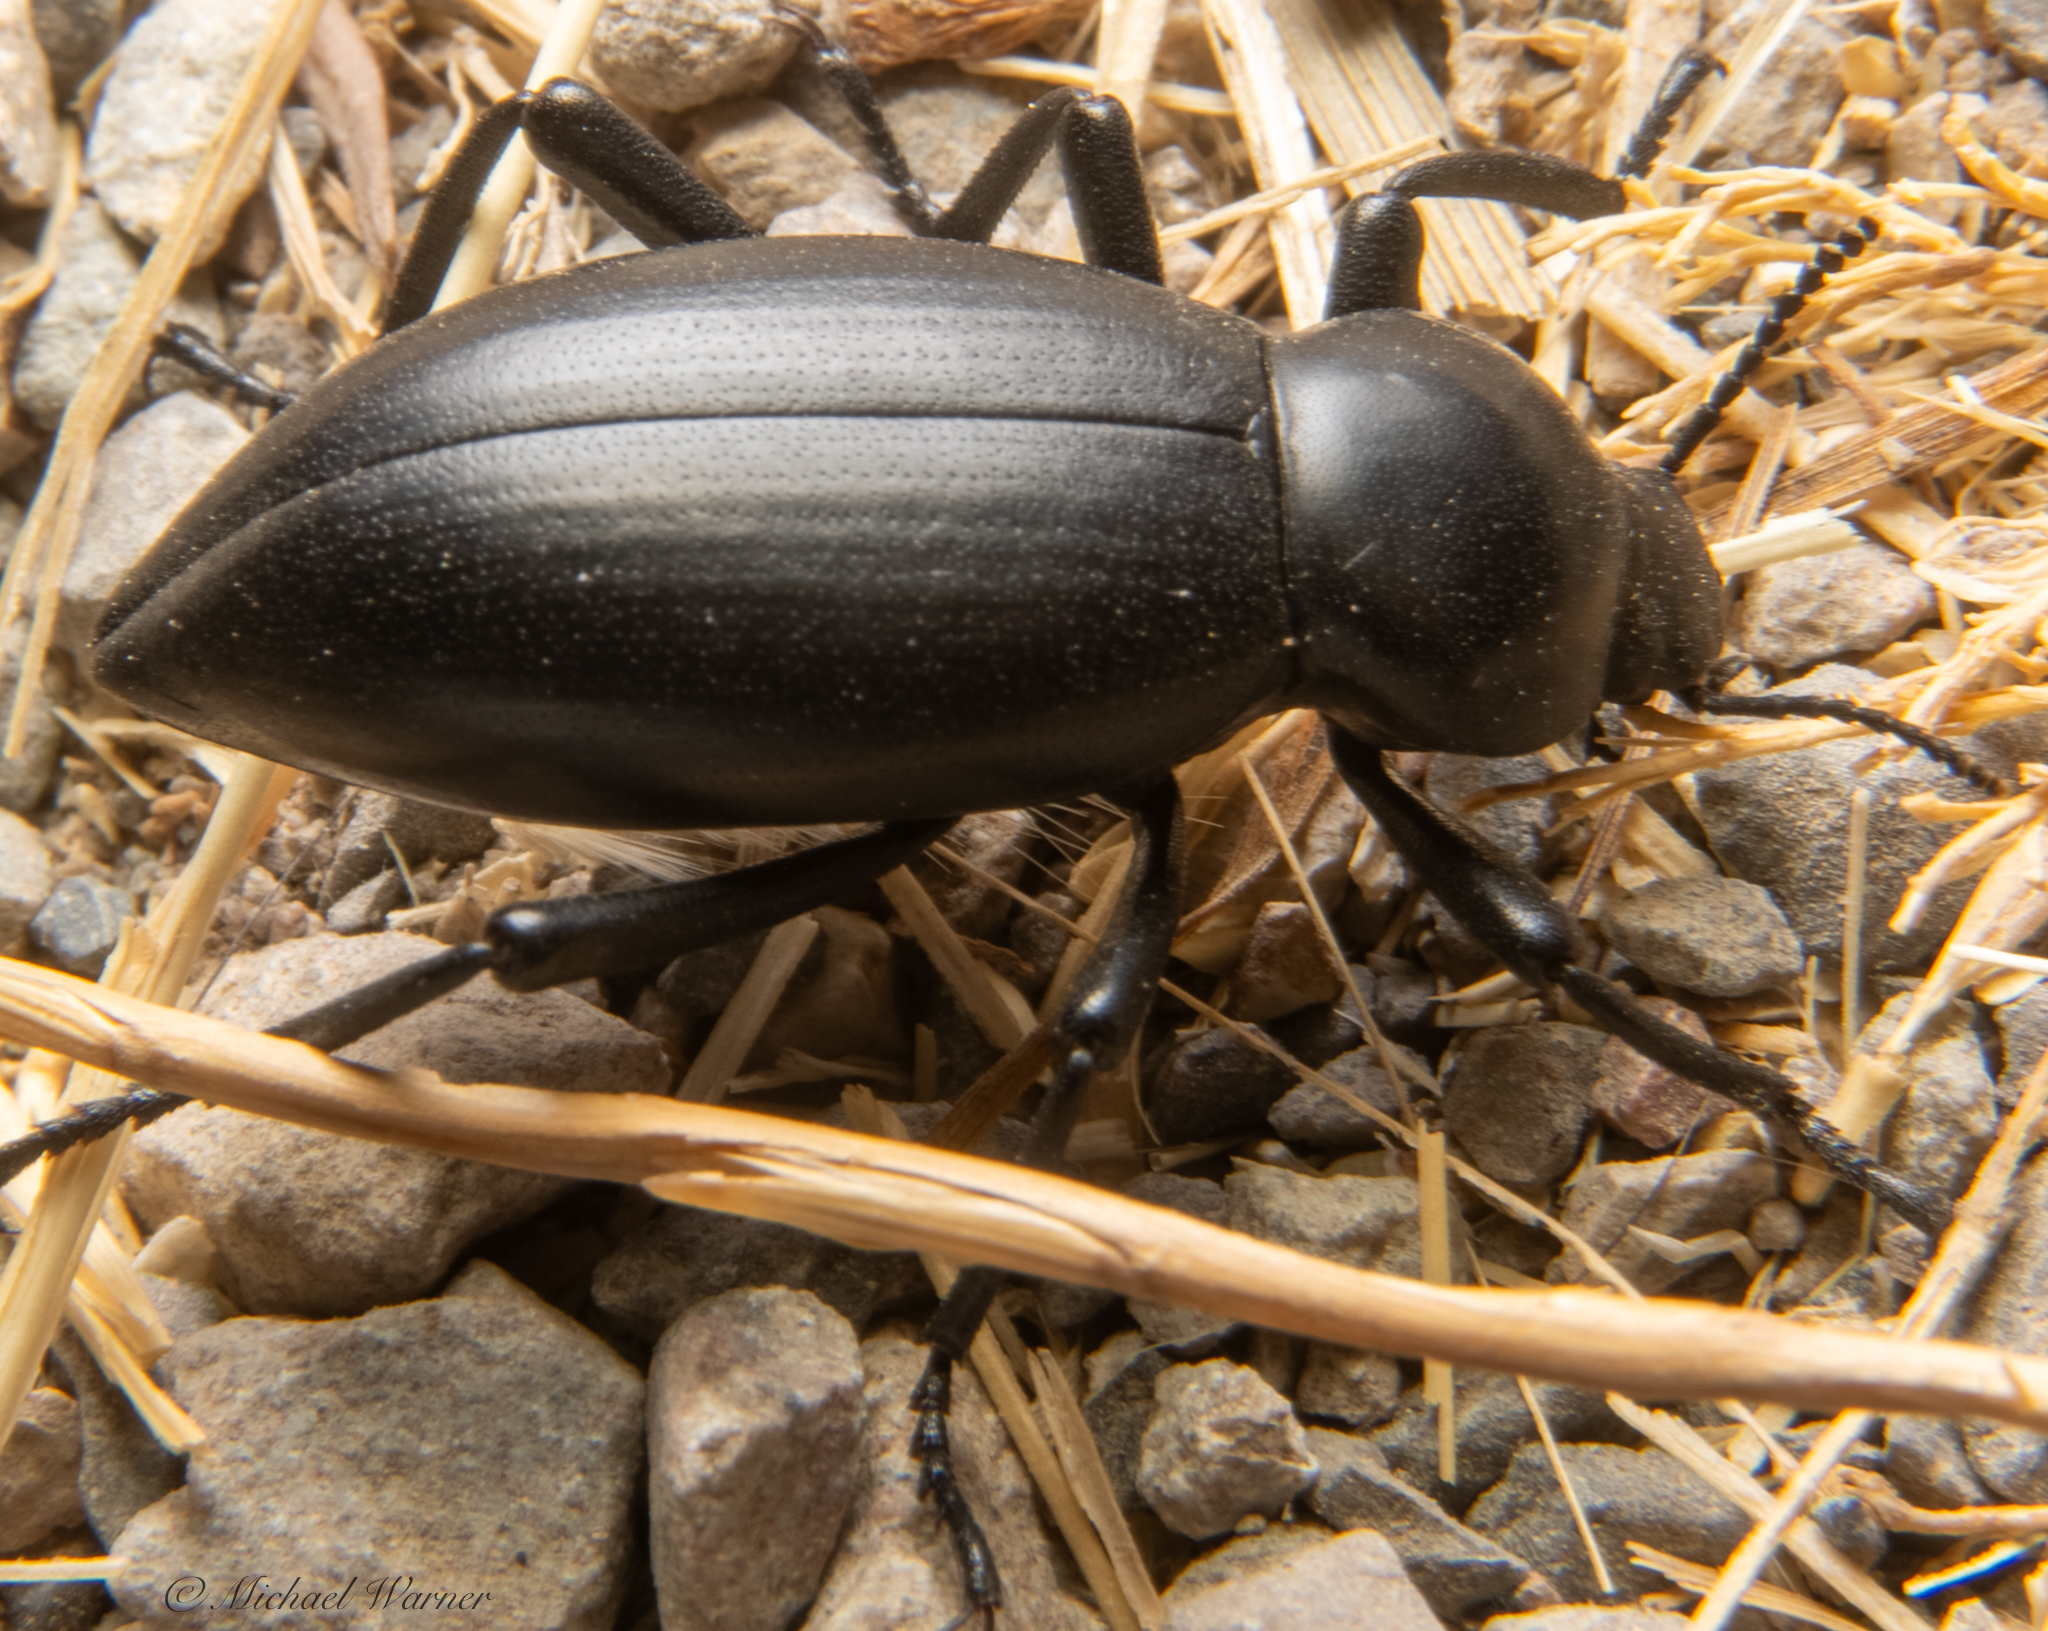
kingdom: Animalia
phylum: Arthropoda
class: Insecta
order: Coleoptera
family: Tenebrionidae
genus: Eleodes
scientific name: Eleodes dentipes
